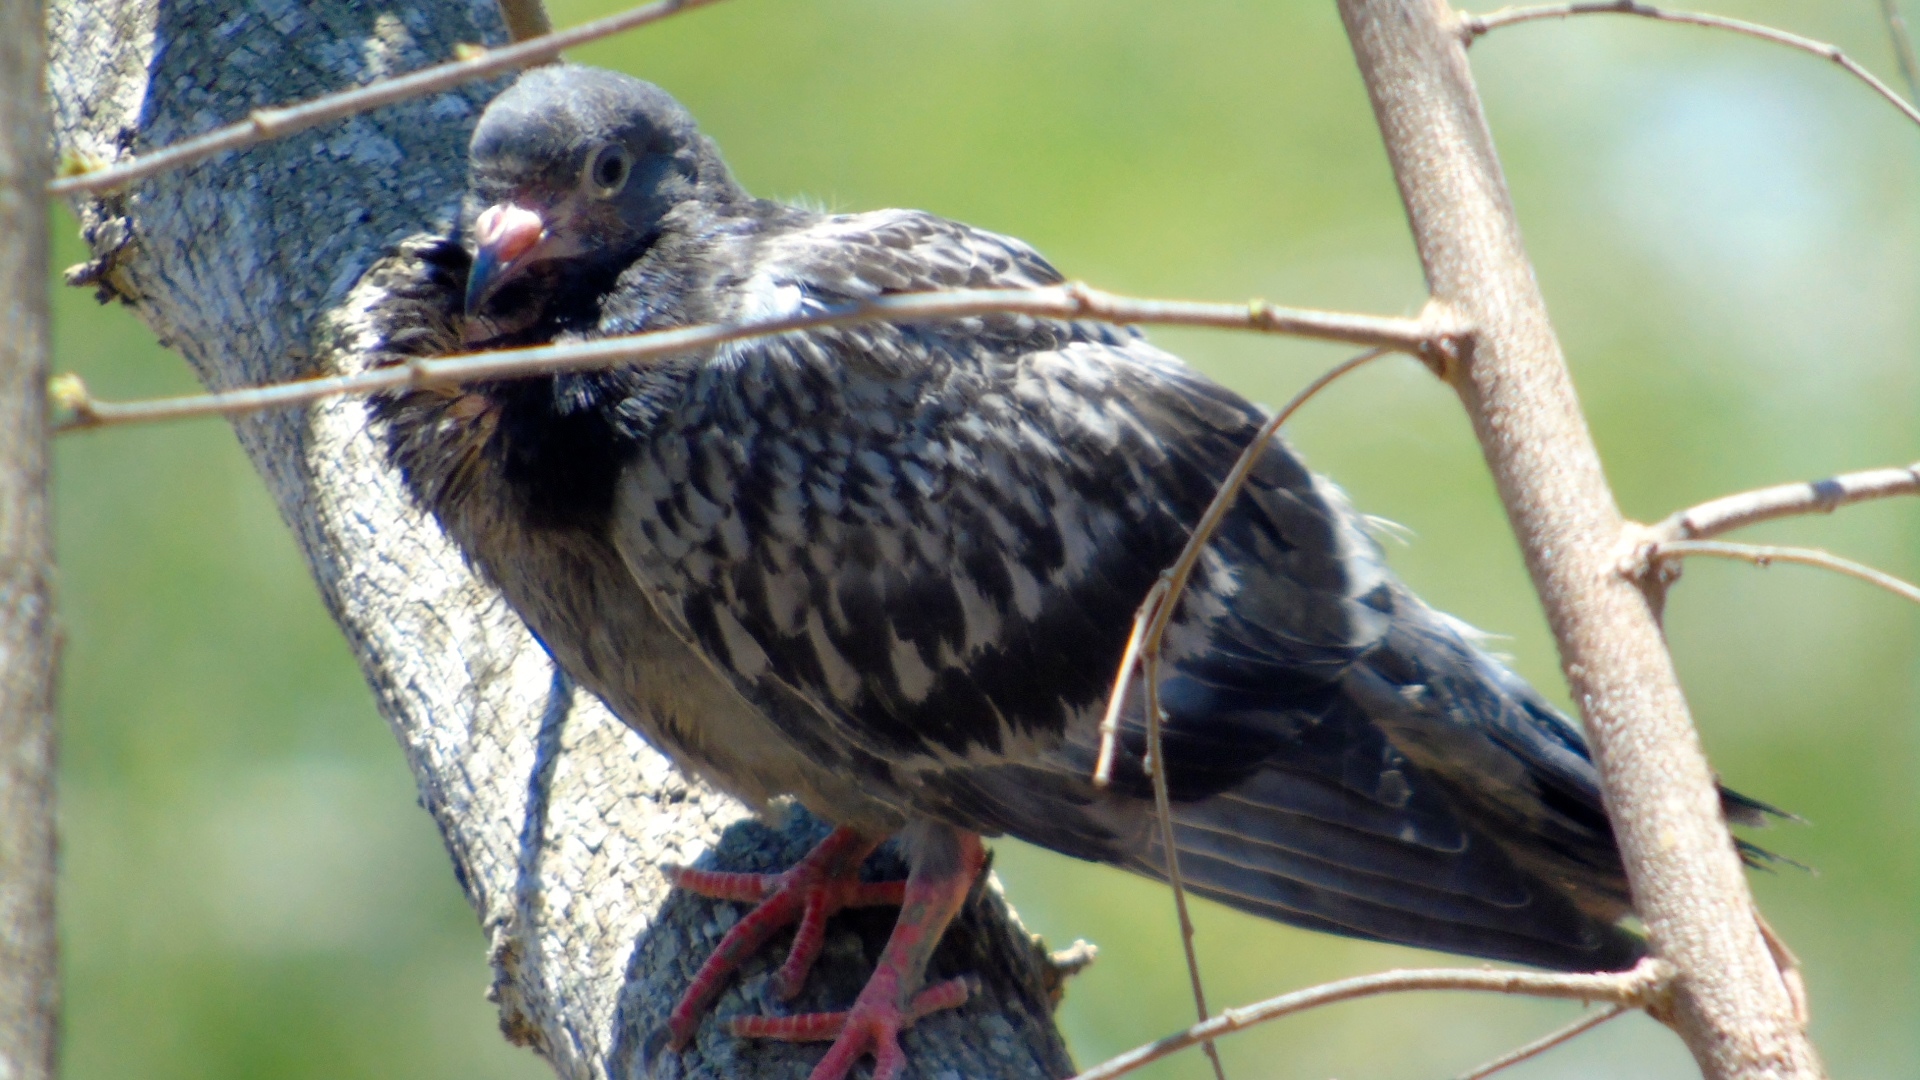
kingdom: Animalia
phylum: Chordata
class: Aves
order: Columbiformes
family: Columbidae
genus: Columba
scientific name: Columba livia
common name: Rock pigeon
